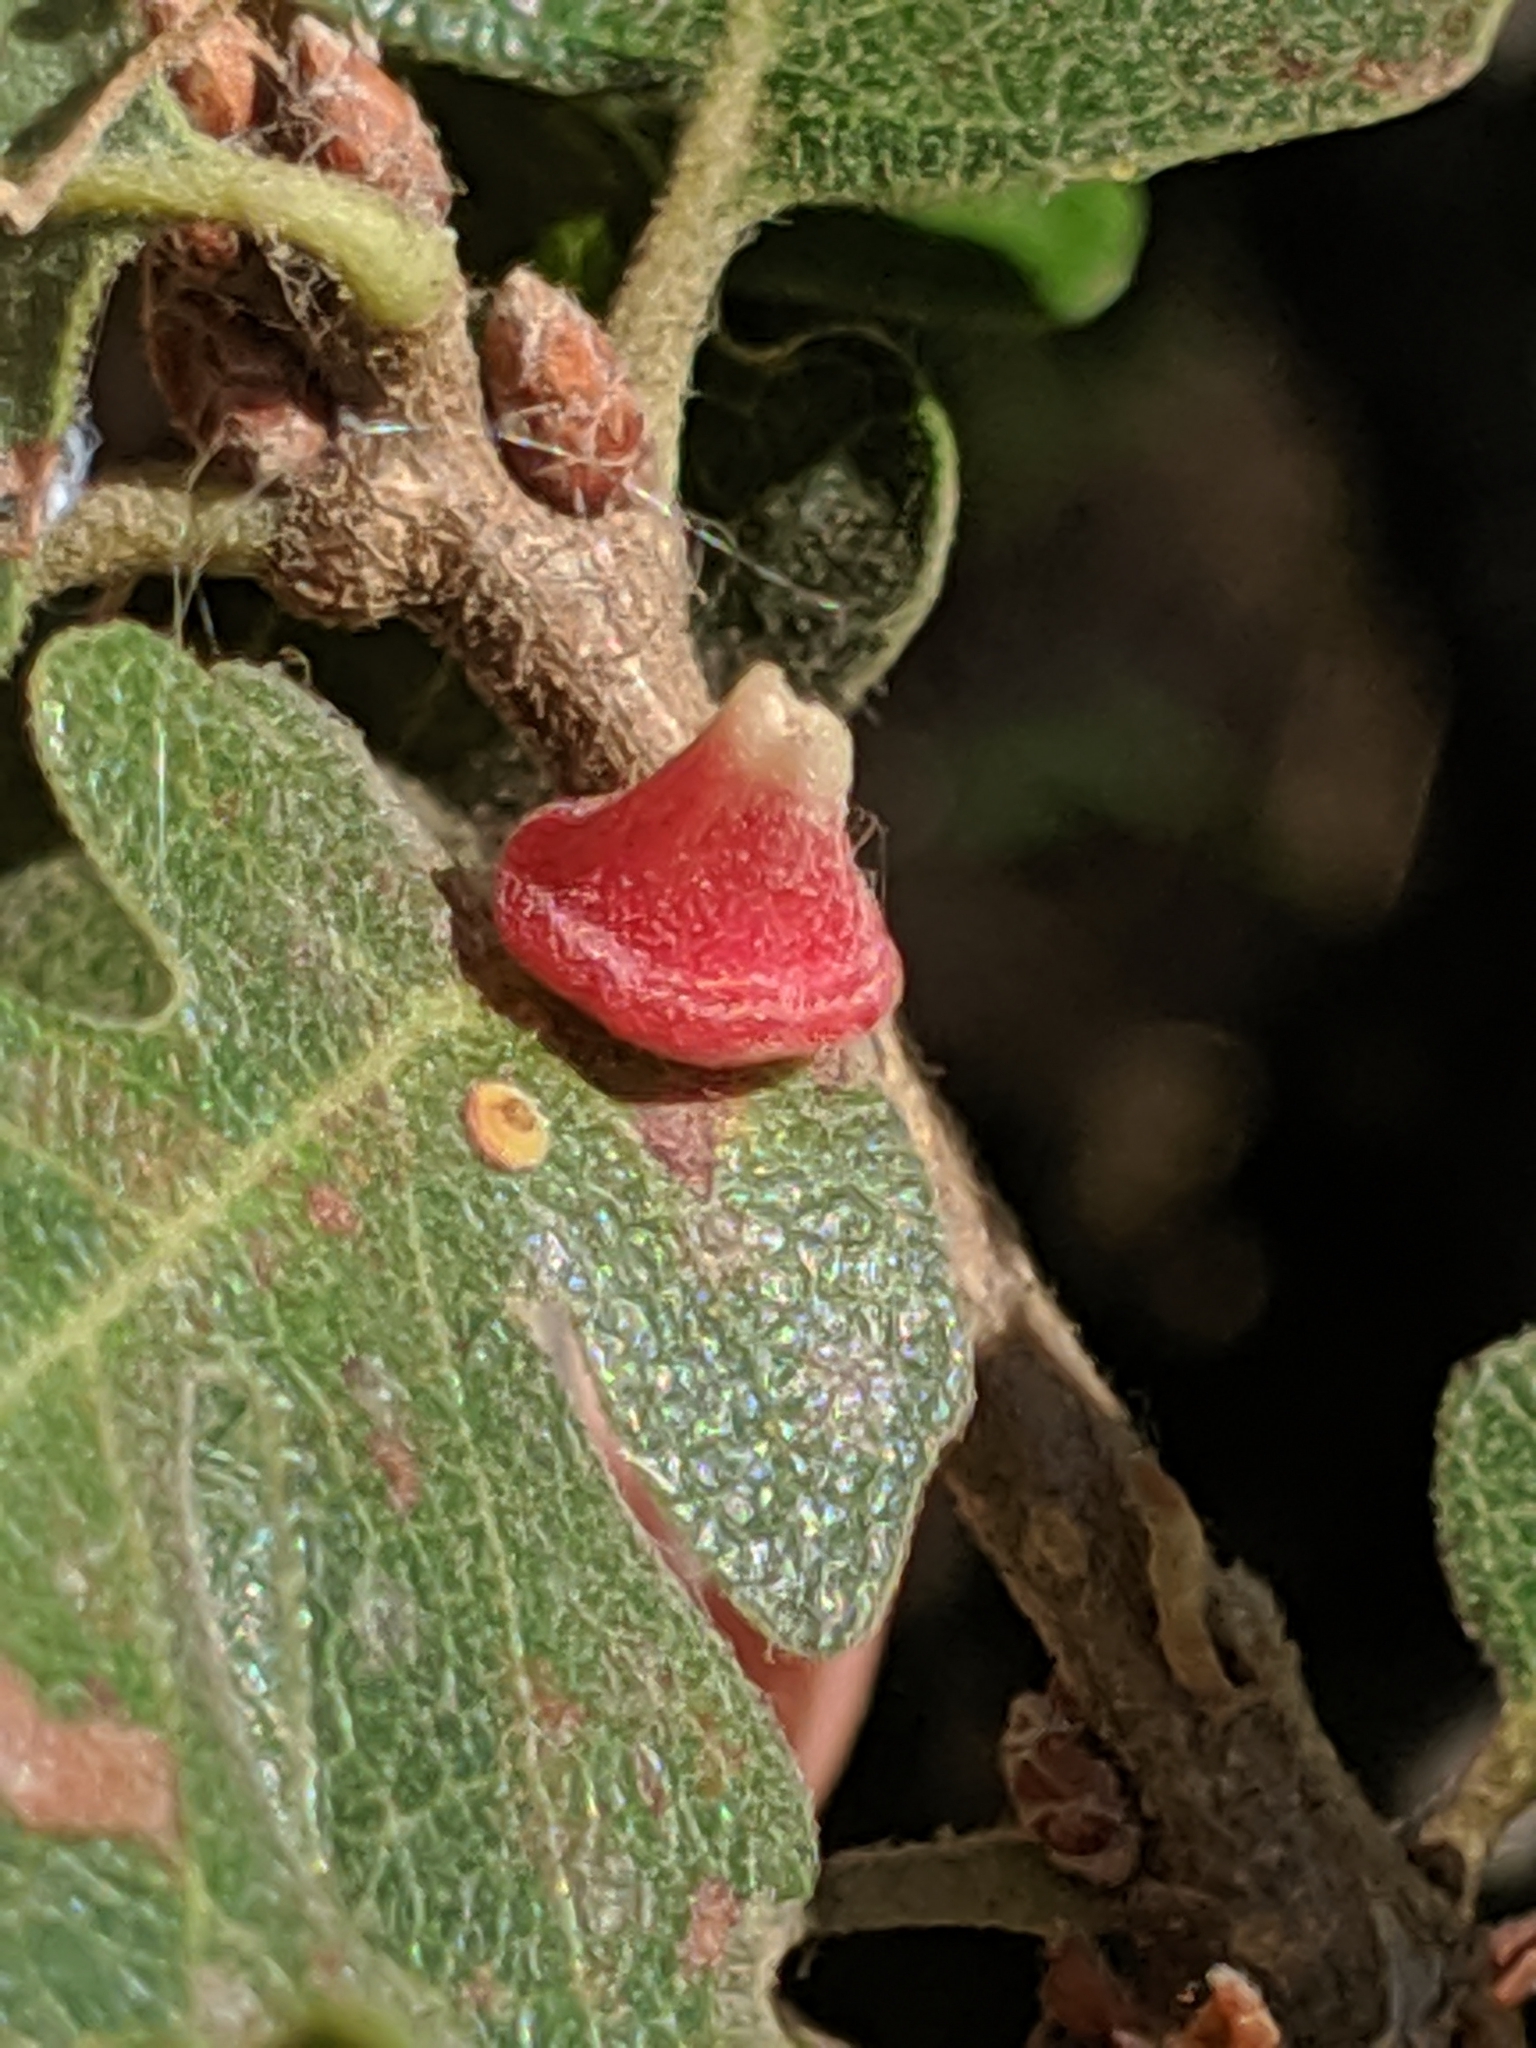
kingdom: Animalia
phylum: Arthropoda
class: Insecta
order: Hymenoptera
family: Cynipidae
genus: Andricus
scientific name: Andricus
